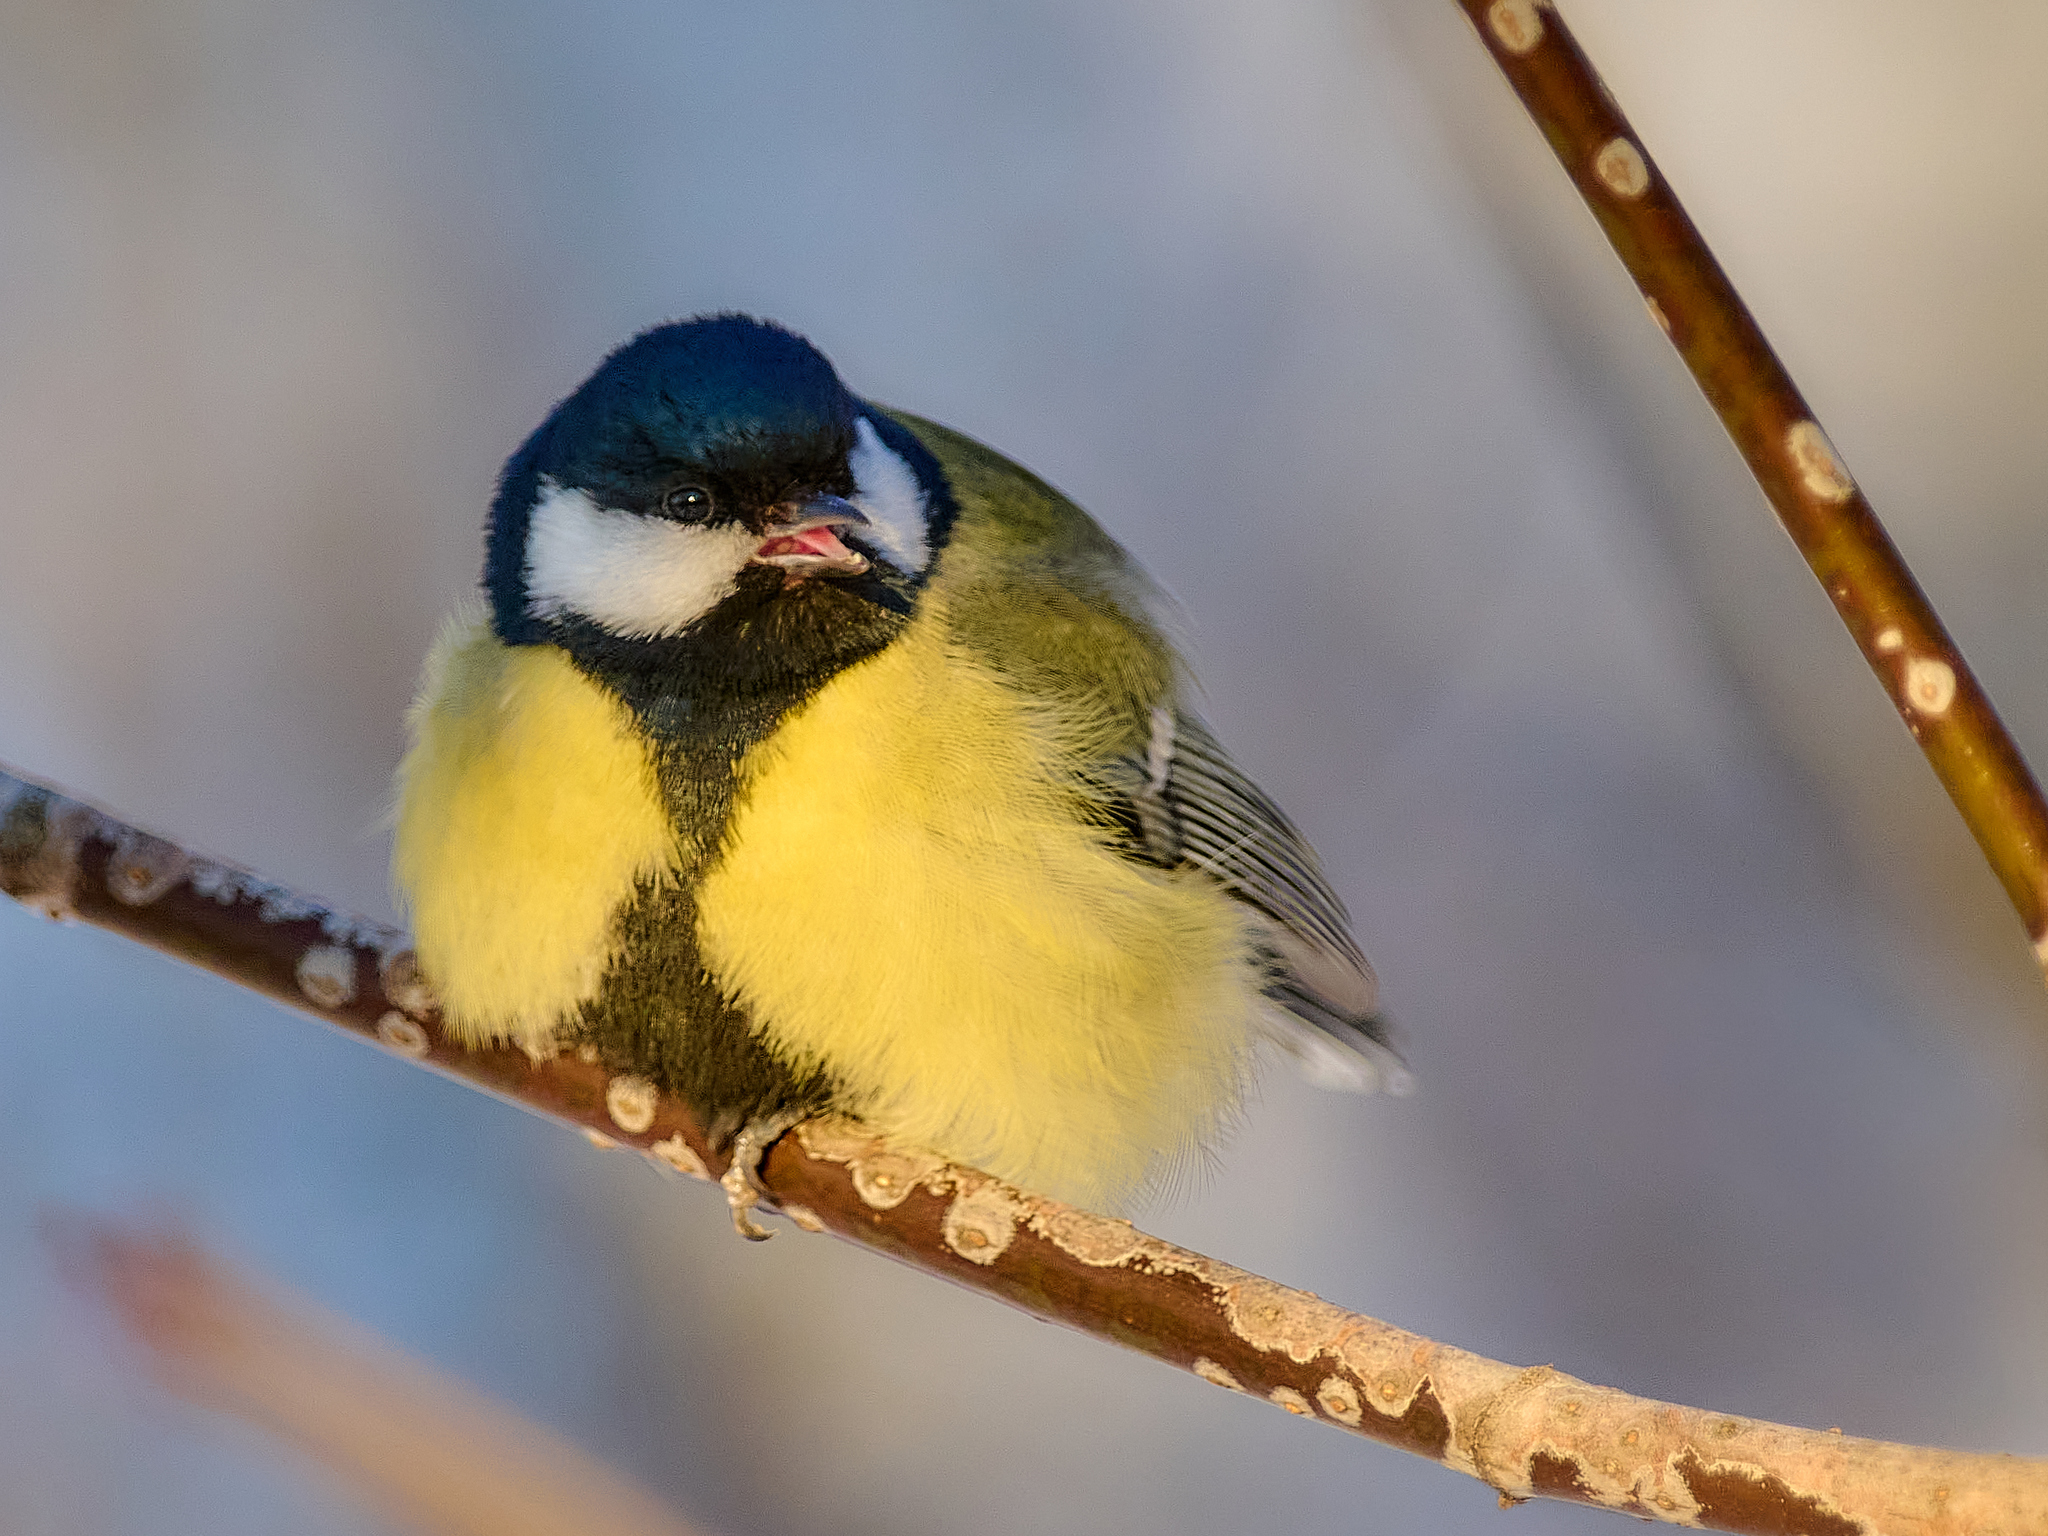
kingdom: Animalia
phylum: Chordata
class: Aves
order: Passeriformes
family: Paridae
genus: Parus
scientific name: Parus major
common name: Great tit
